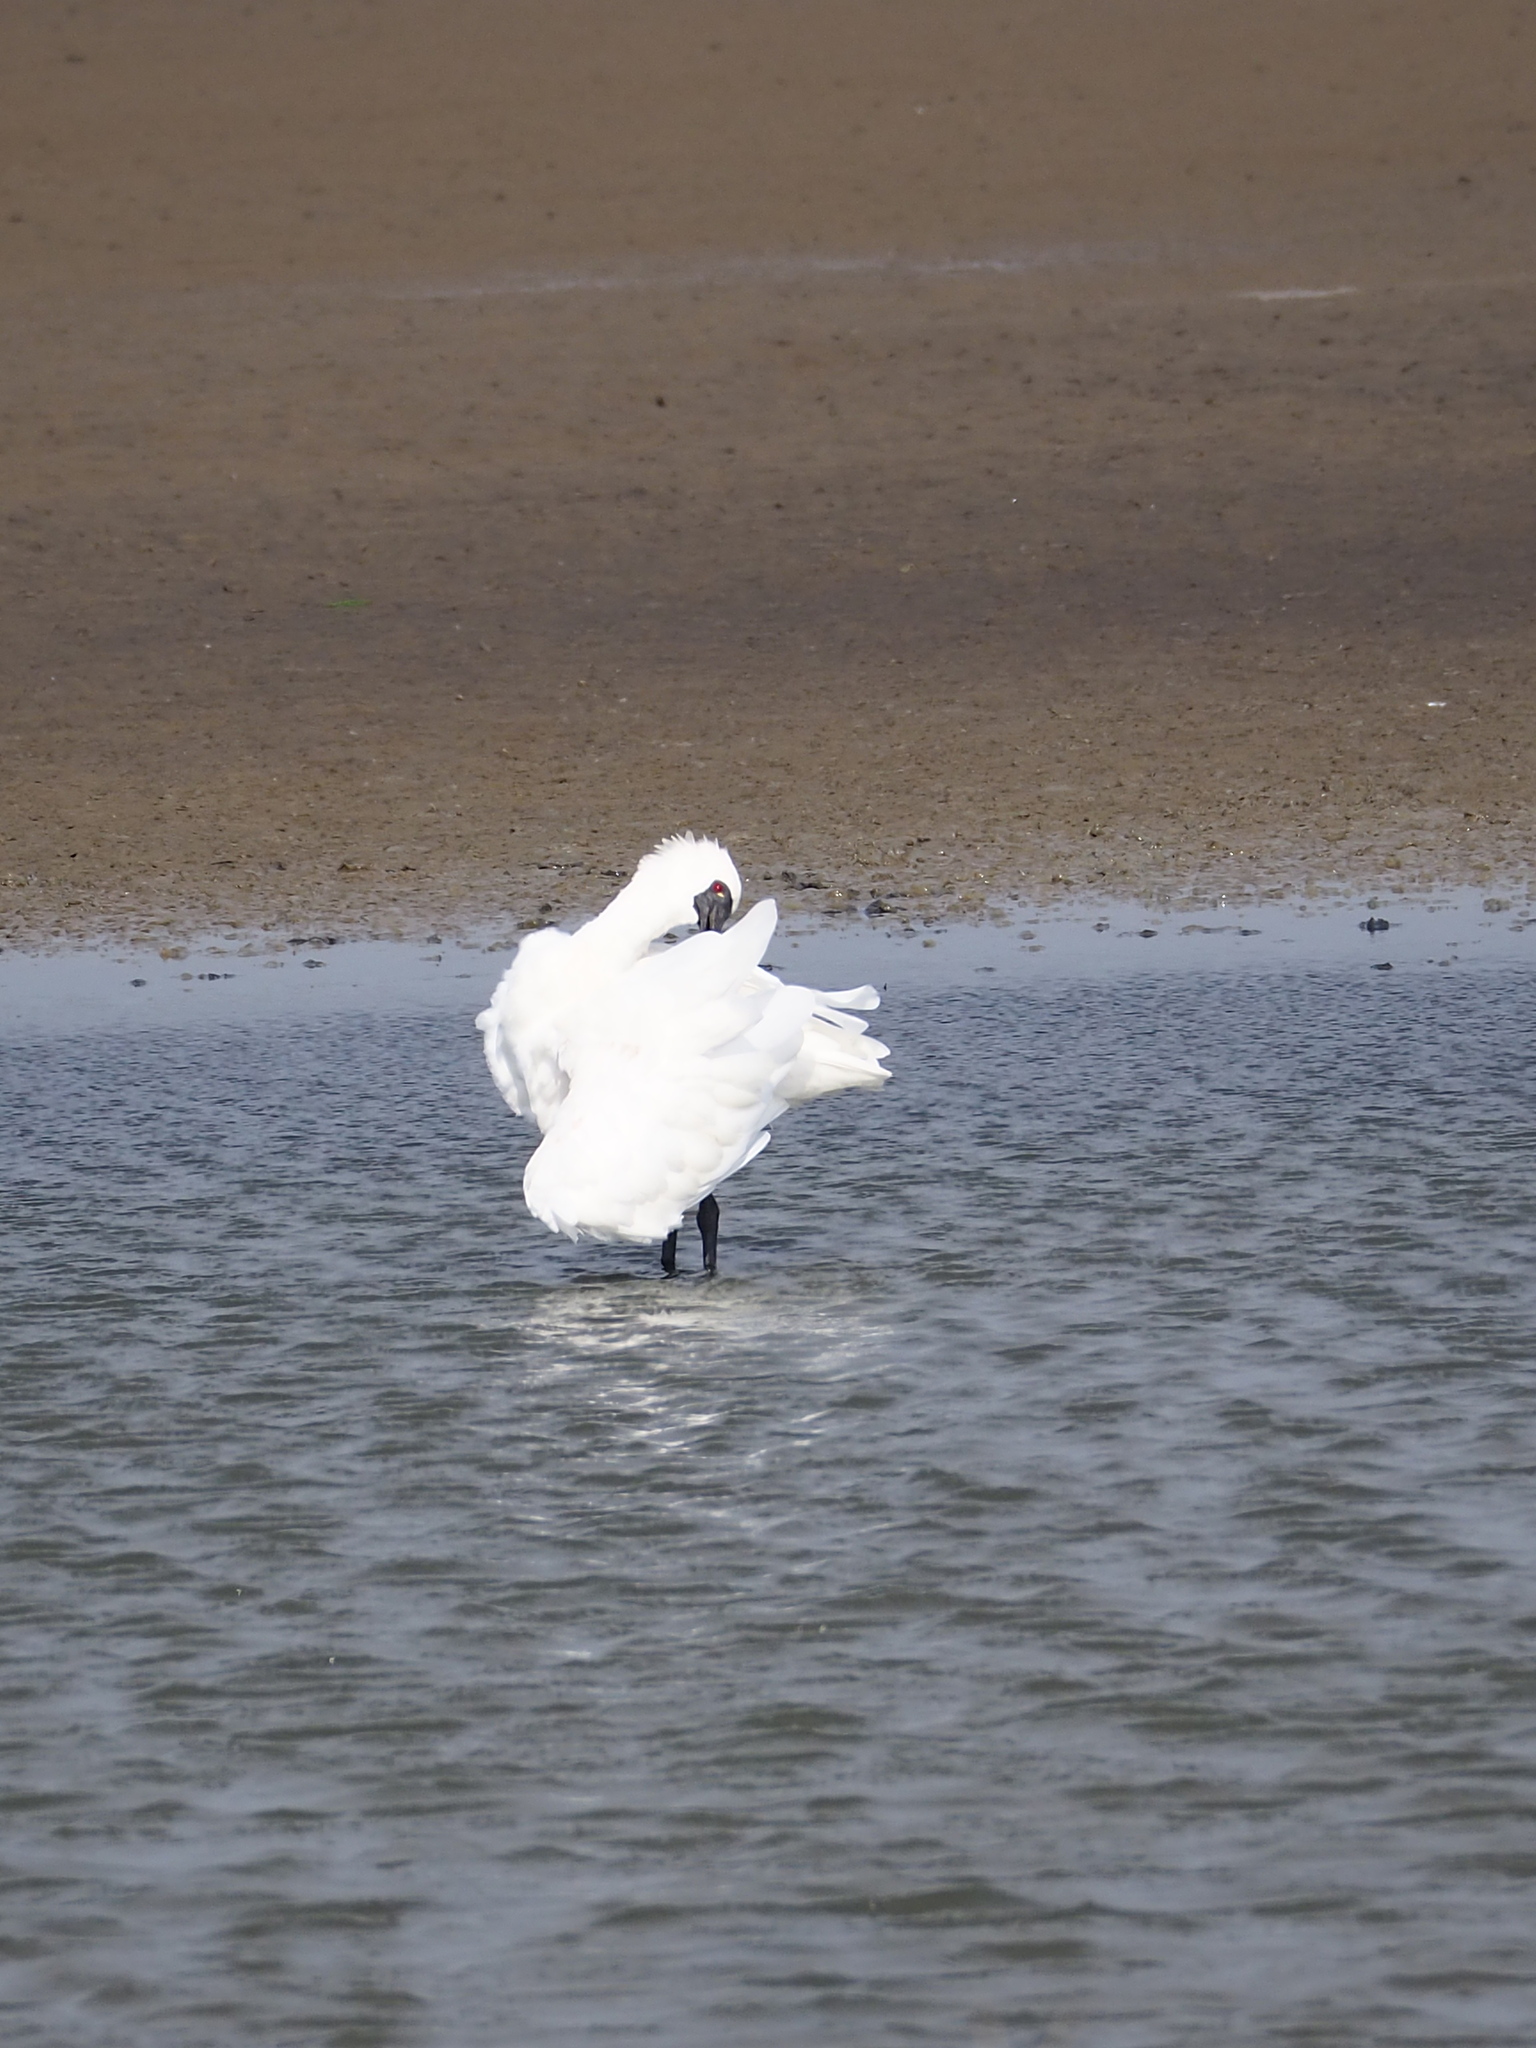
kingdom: Animalia
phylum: Chordata
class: Aves
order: Pelecaniformes
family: Threskiornithidae
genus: Platalea
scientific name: Platalea minor
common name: Black-faced spoonbill
